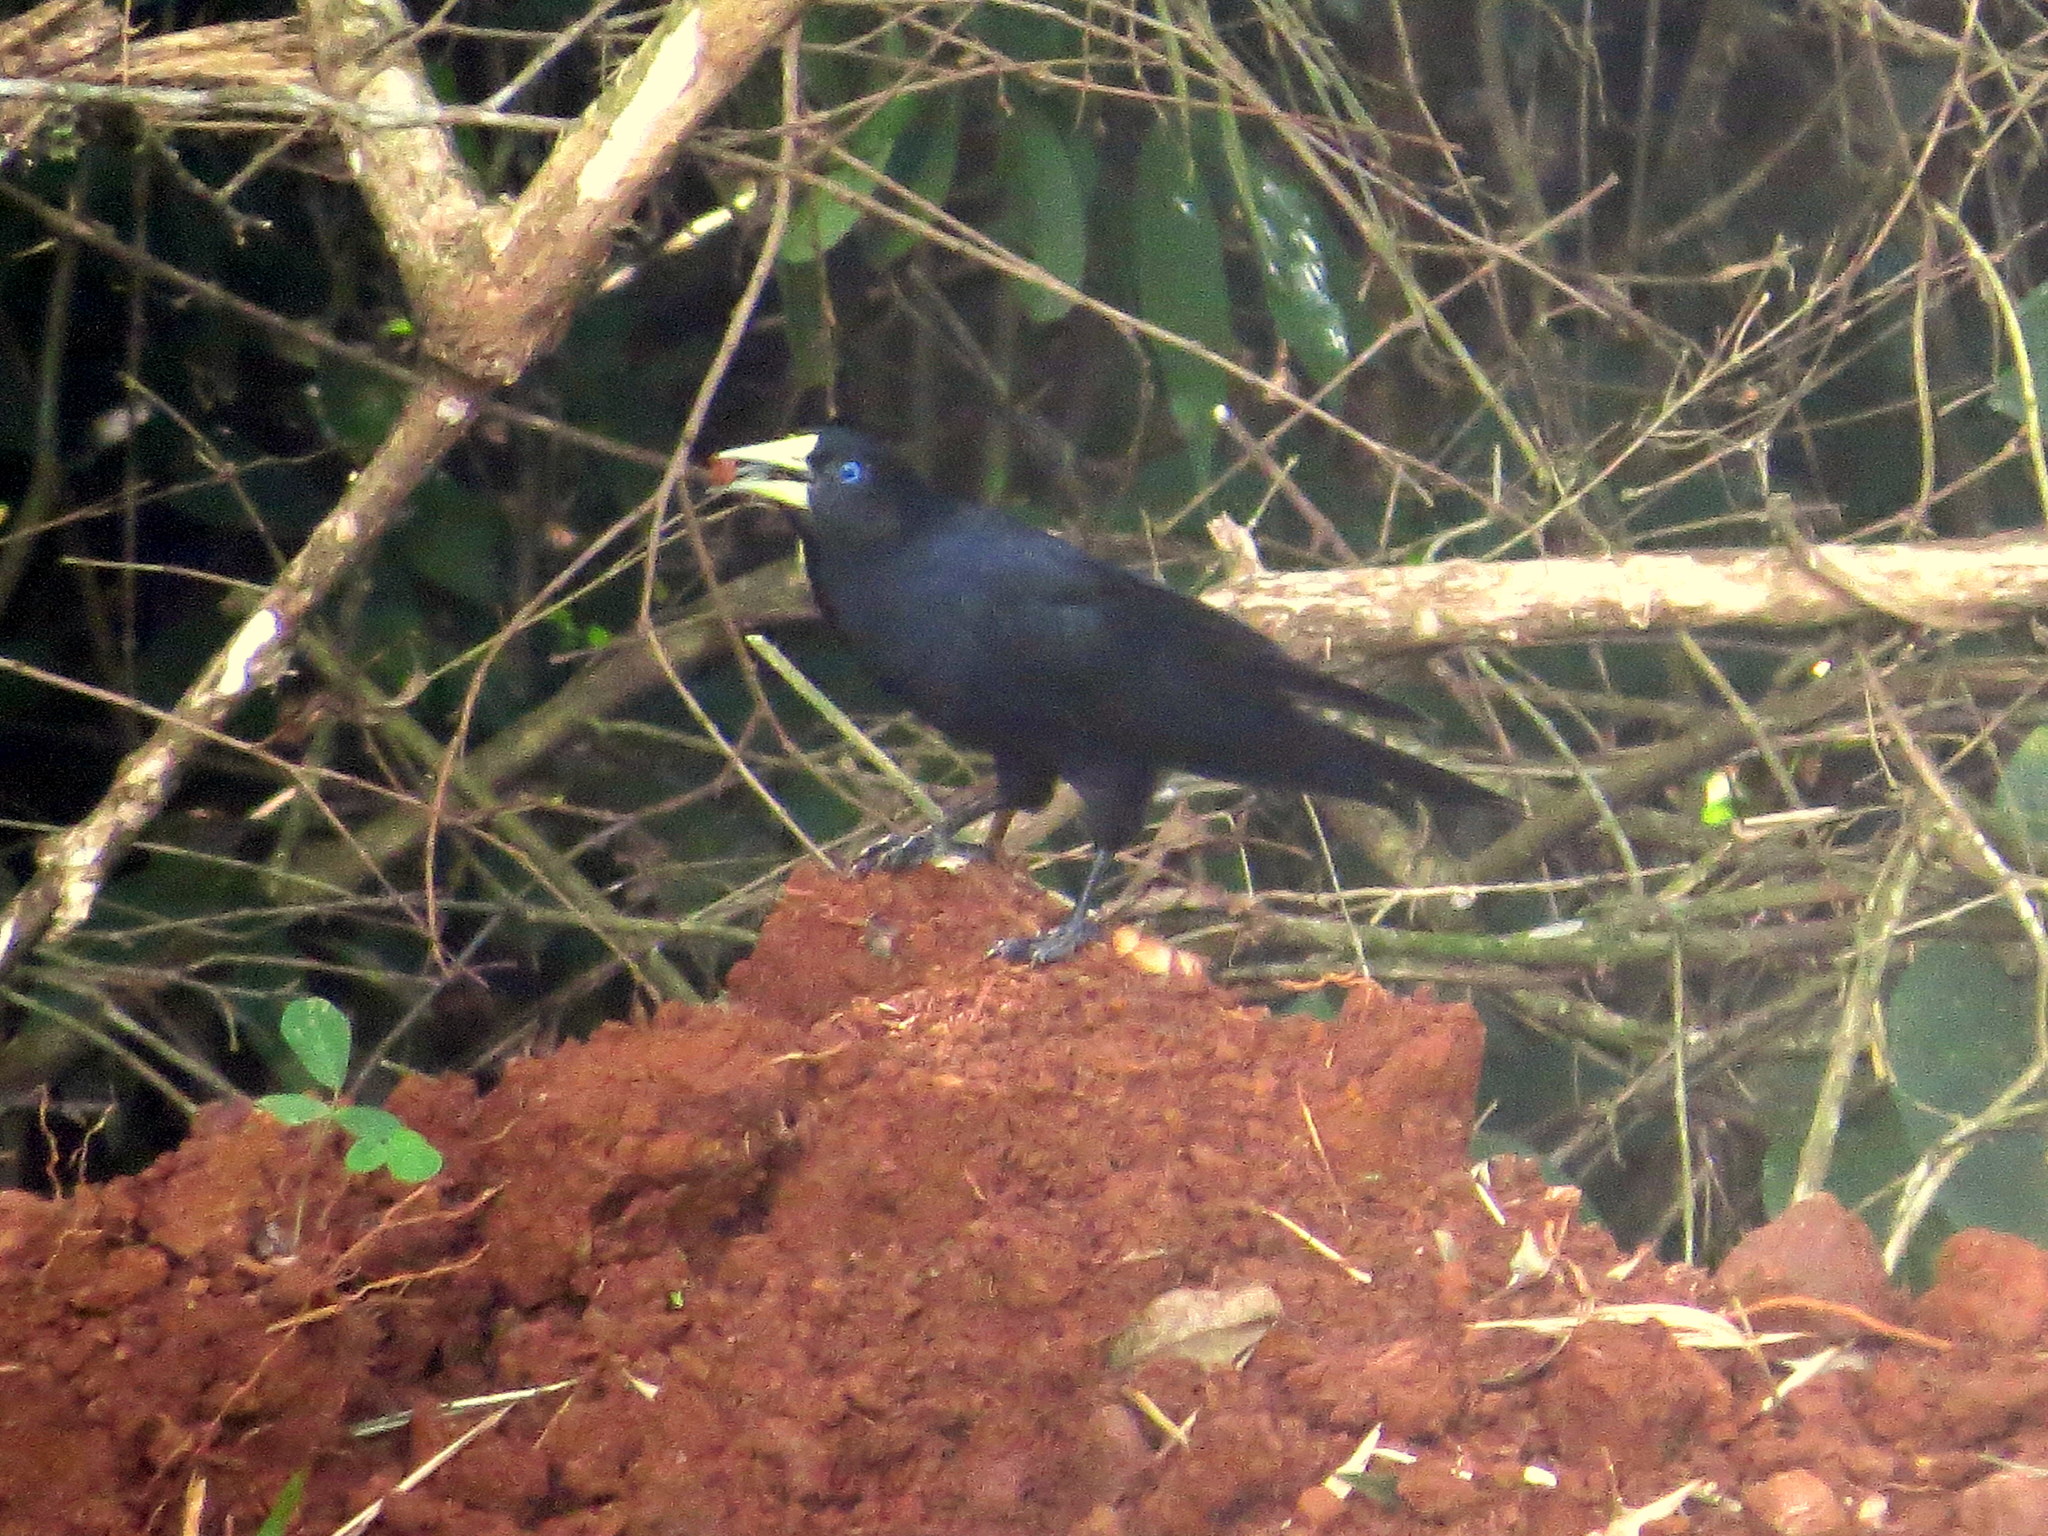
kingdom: Animalia
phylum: Chordata
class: Aves
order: Passeriformes
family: Icteridae
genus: Cacicus
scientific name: Cacicus haemorrhous
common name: Red-rumped cacique
